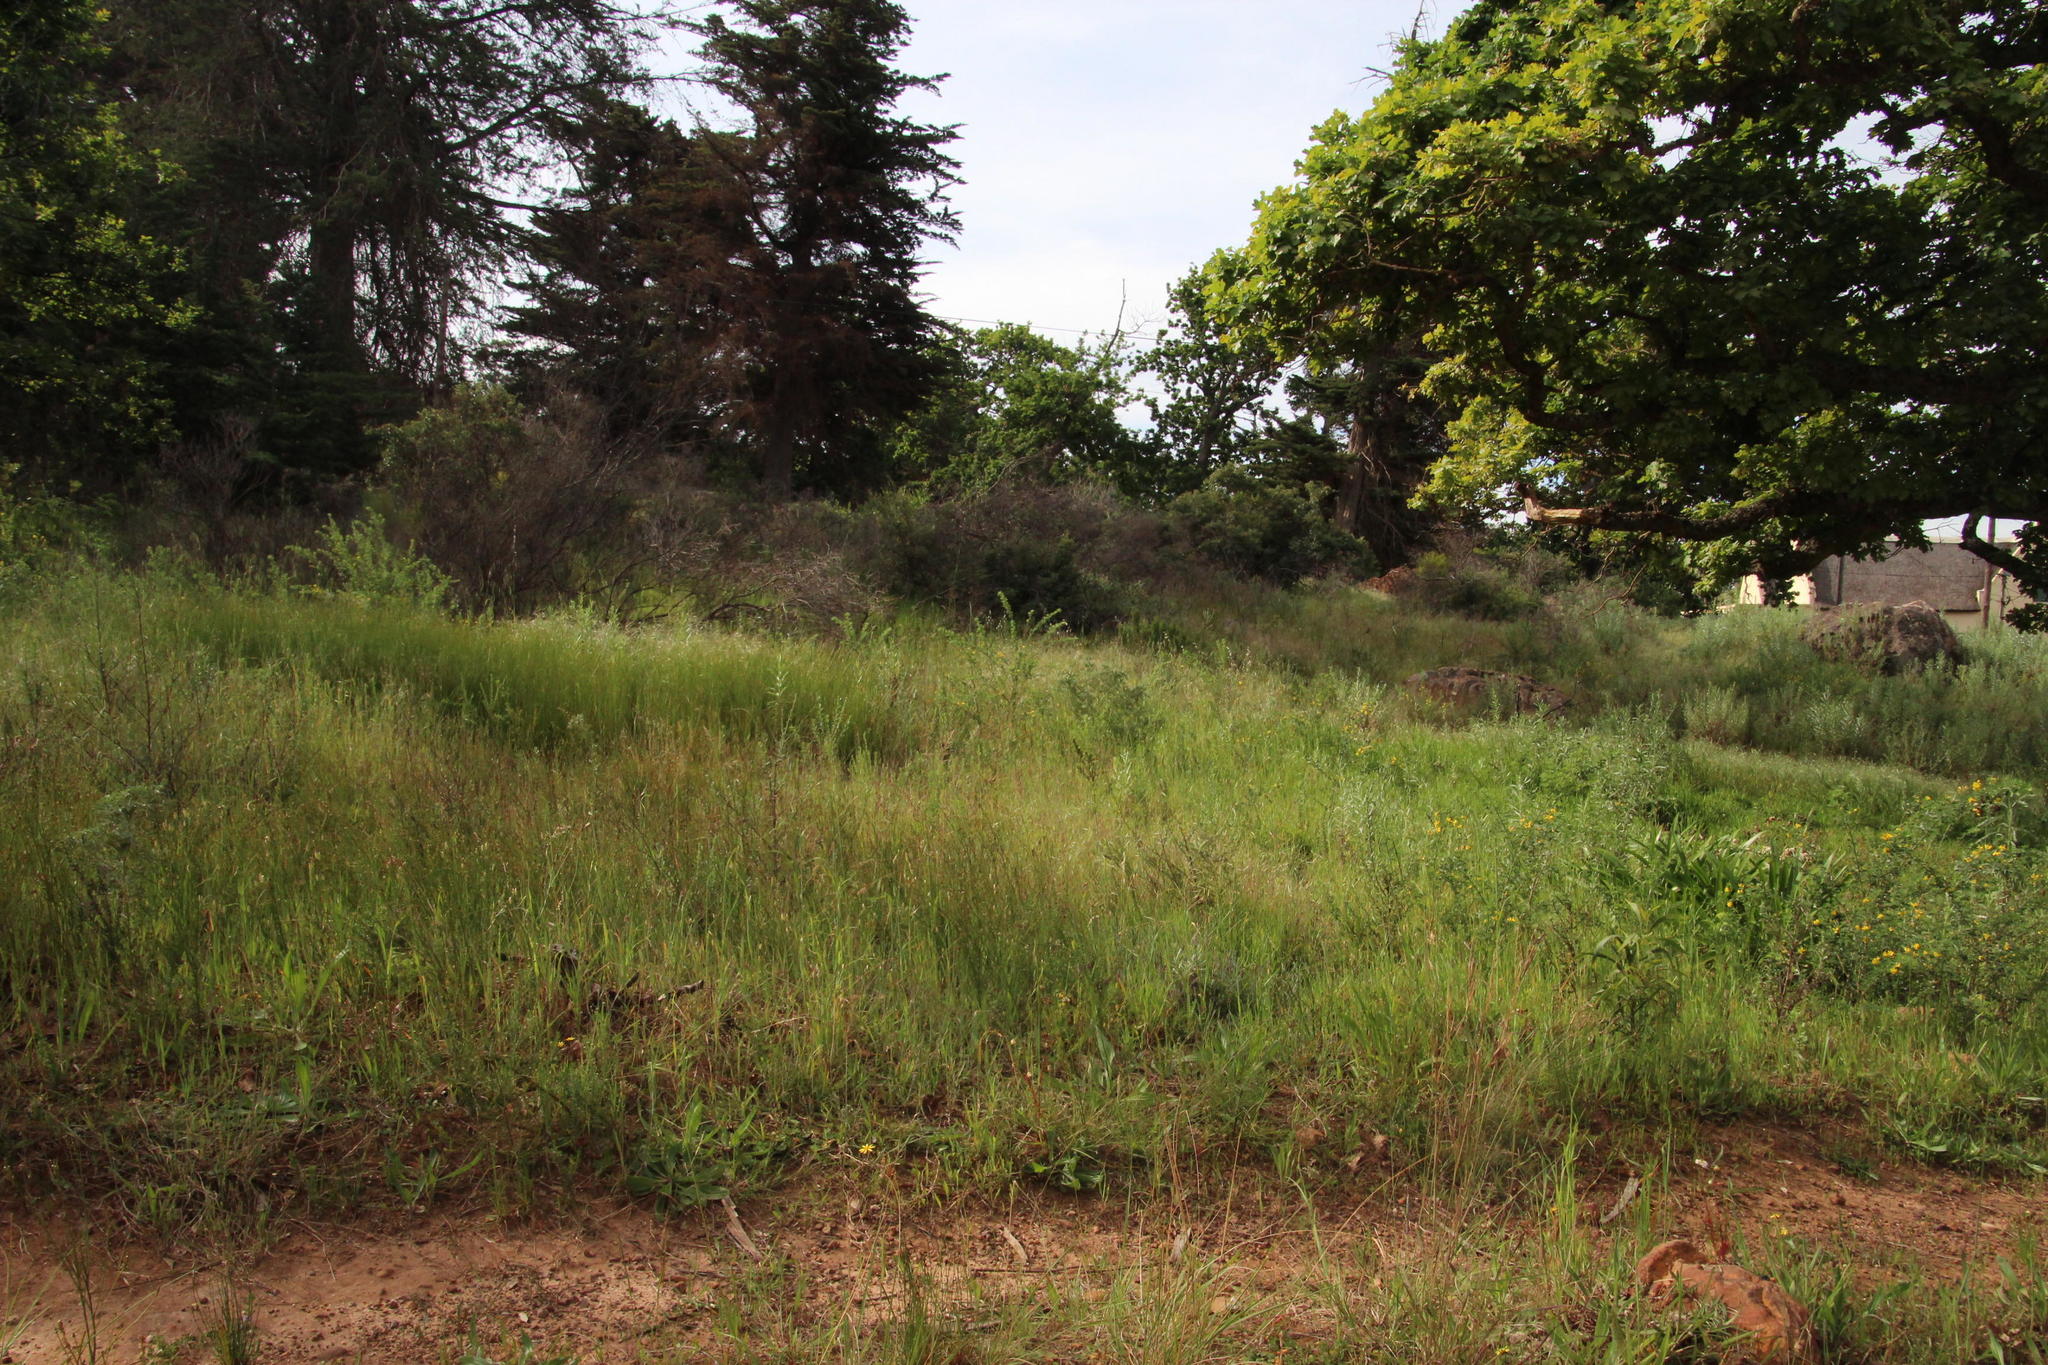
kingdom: Plantae
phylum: Tracheophyta
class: Magnoliopsida
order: Fabales
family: Fabaceae
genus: Genista
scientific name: Genista monspessulana
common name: Montpellier broom
